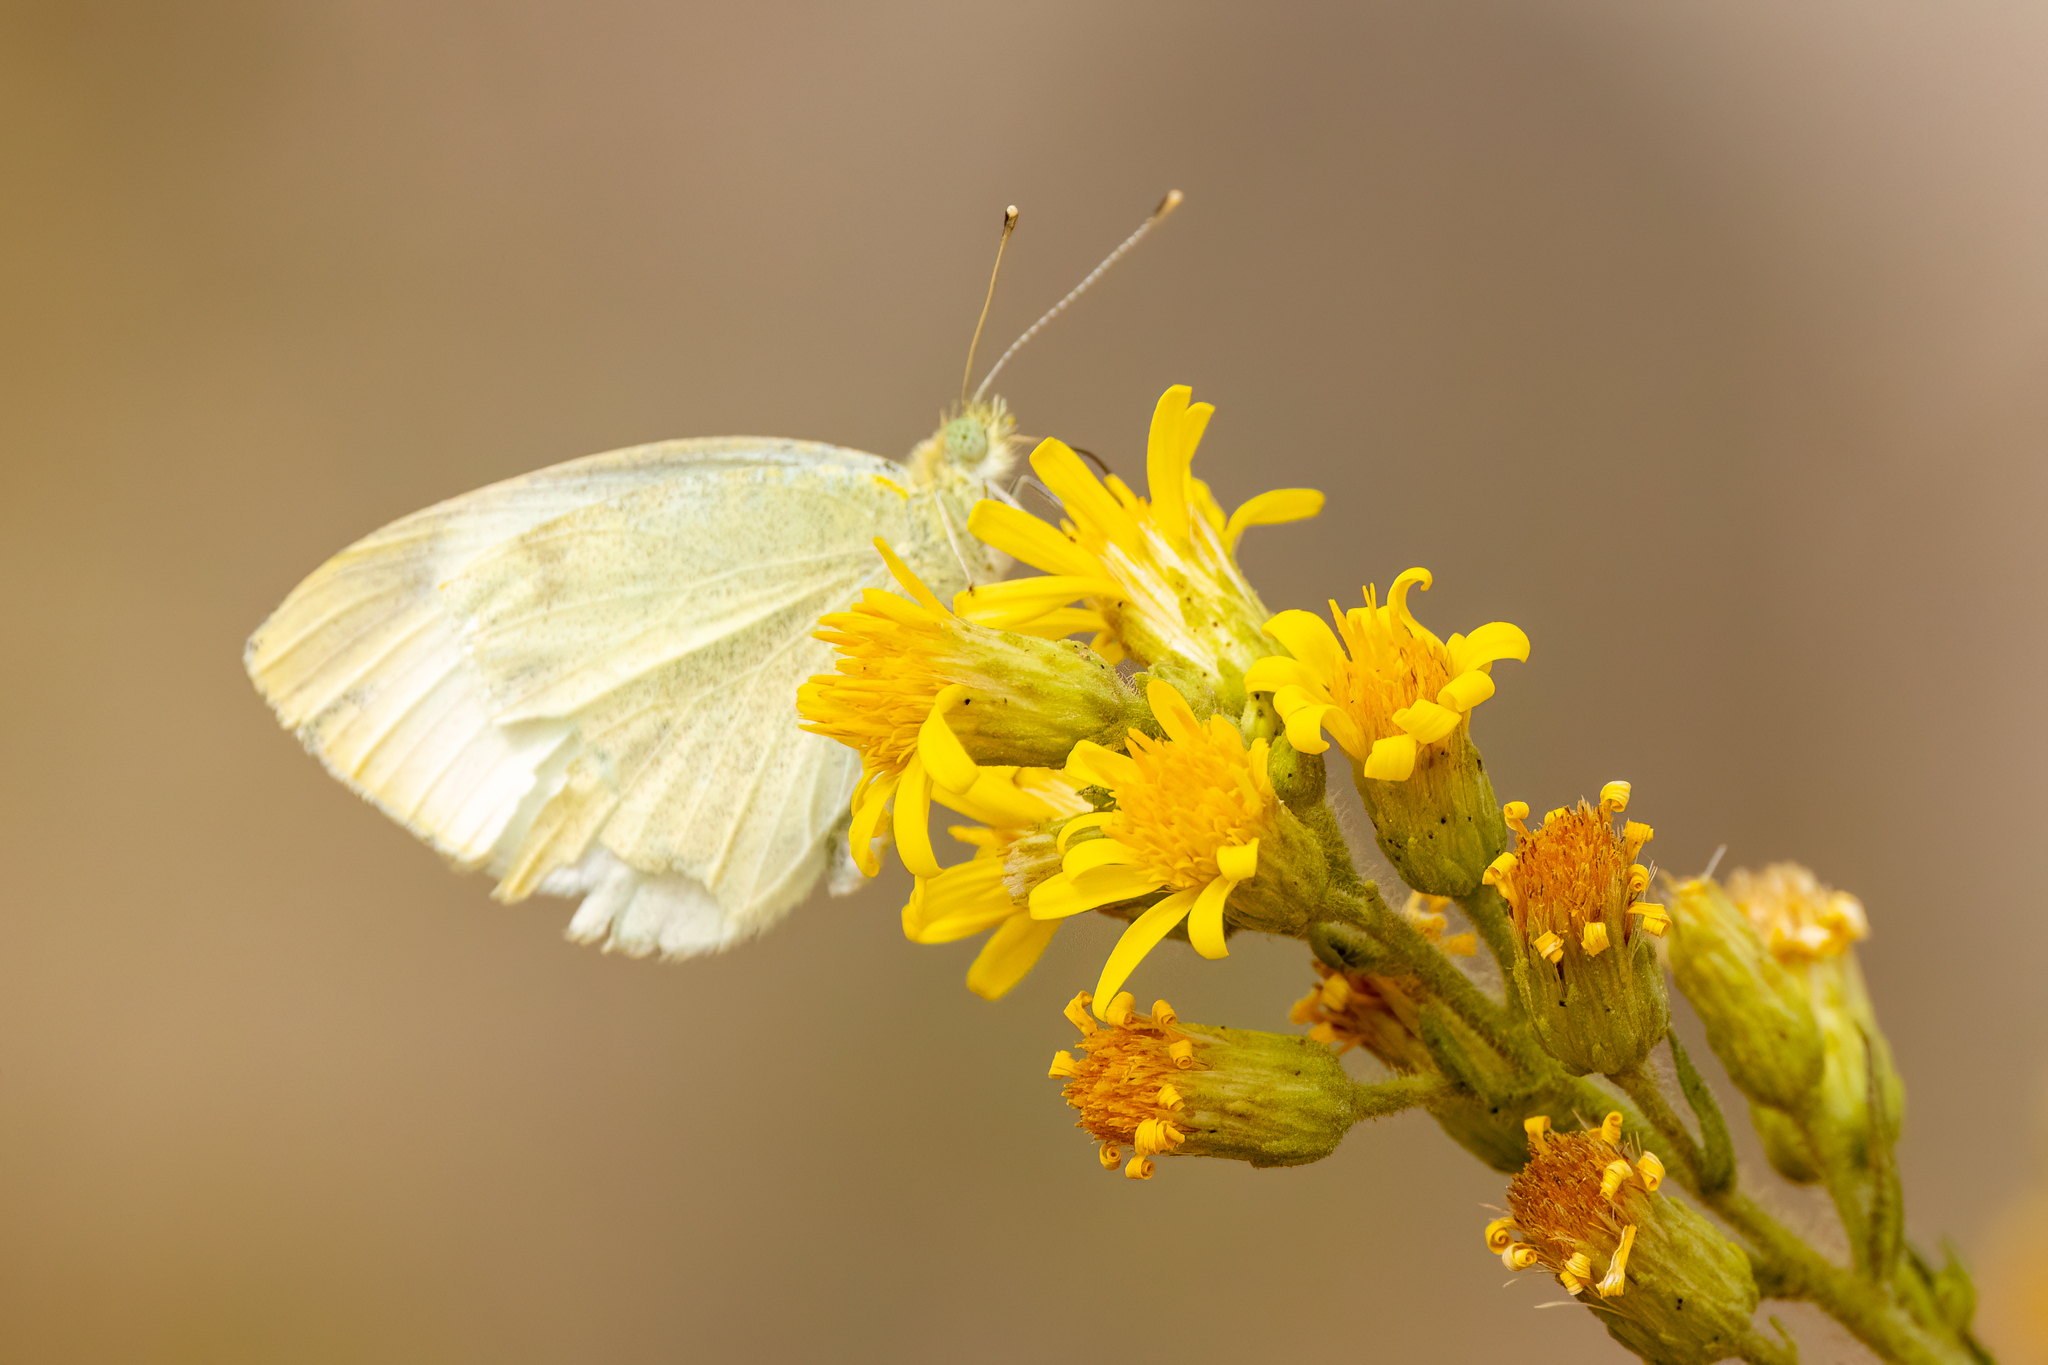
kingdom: Animalia
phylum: Arthropoda
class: Insecta
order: Lepidoptera
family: Pieridae
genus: Pieris
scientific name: Pieris rapae
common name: Small white
